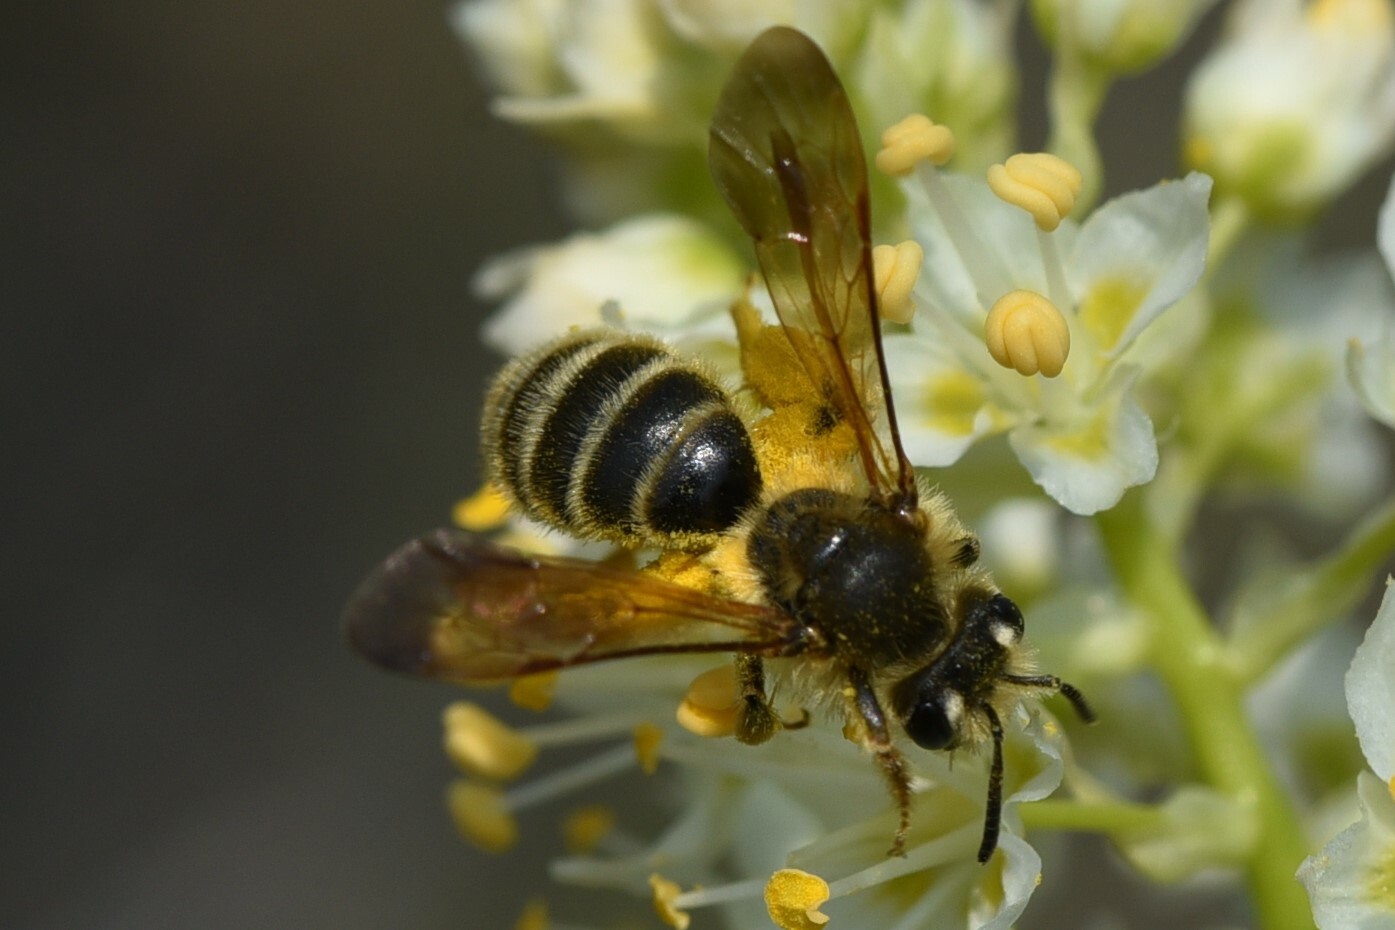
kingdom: Animalia
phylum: Arthropoda
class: Insecta
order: Hymenoptera
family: Andrenidae
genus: Andrena
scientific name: Andrena astragali
